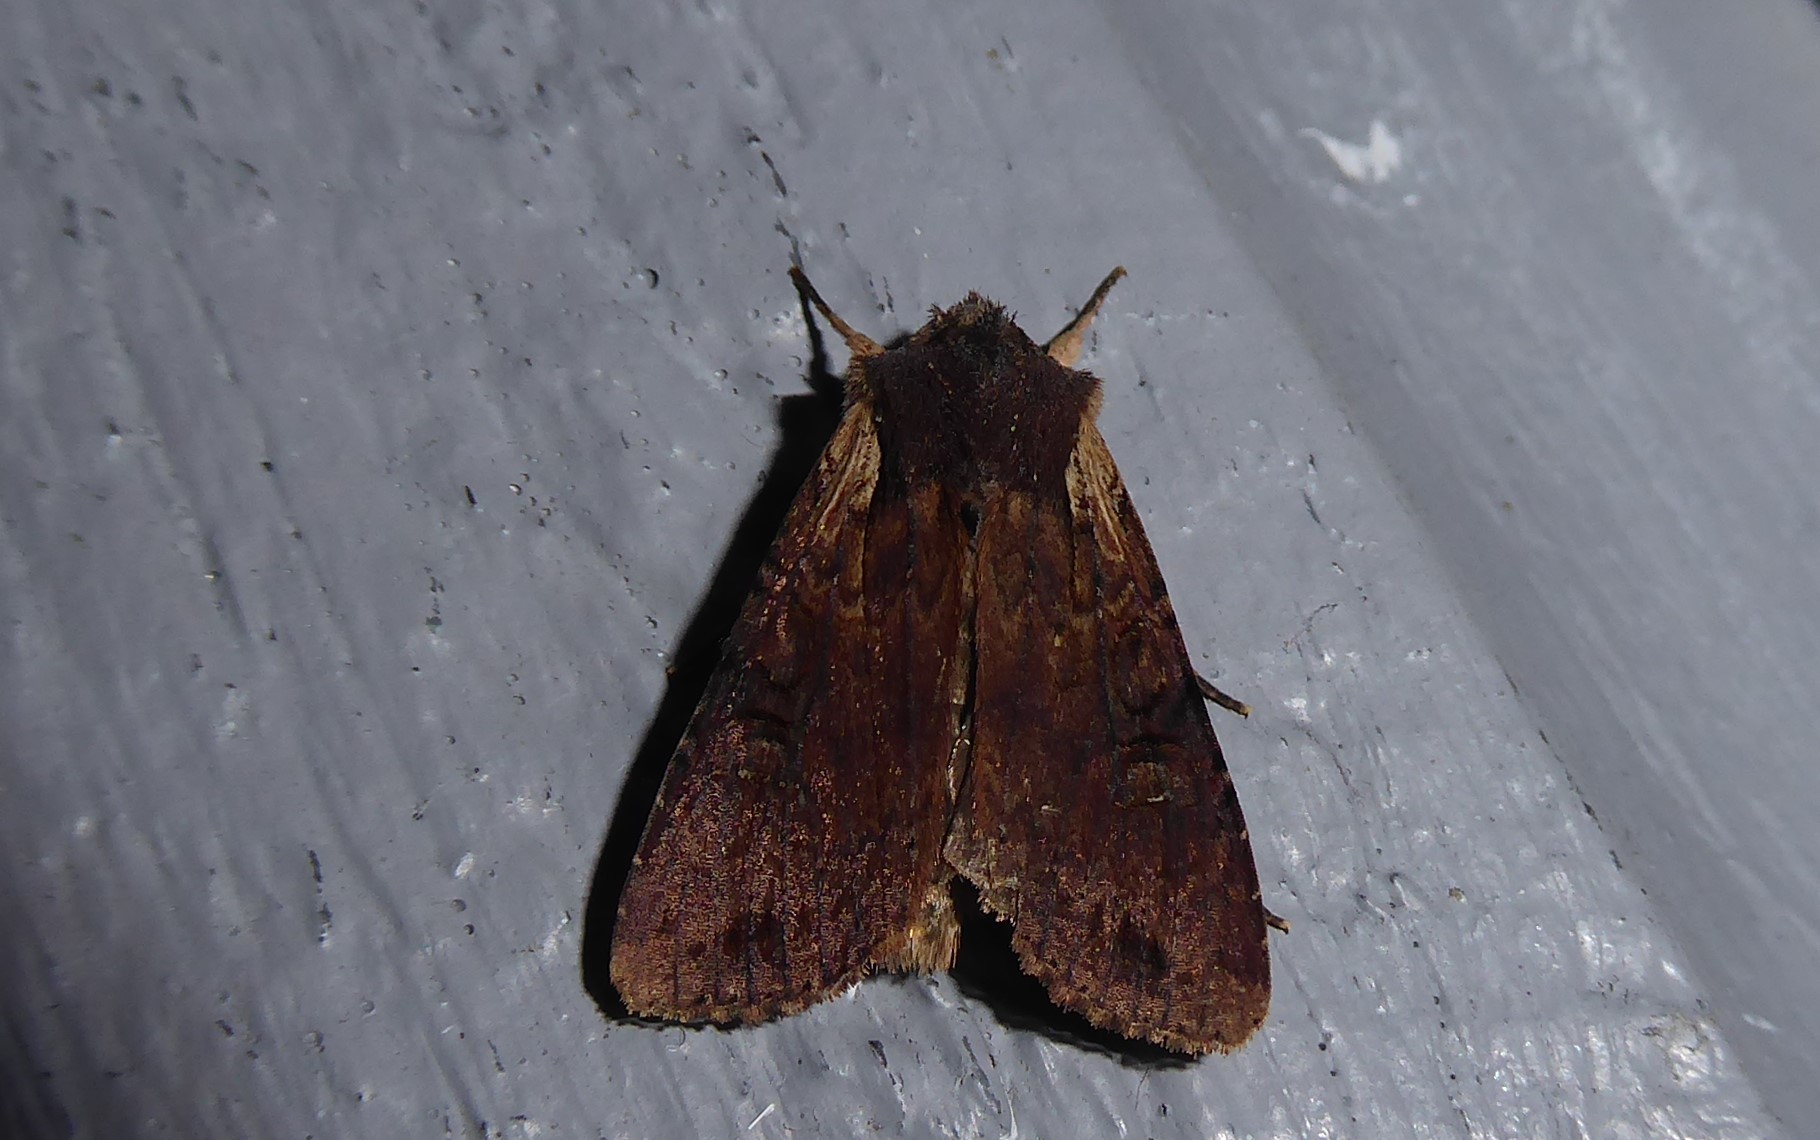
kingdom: Animalia
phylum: Arthropoda
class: Insecta
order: Lepidoptera
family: Noctuidae
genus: Ichneutica
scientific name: Ichneutica omoplaca
